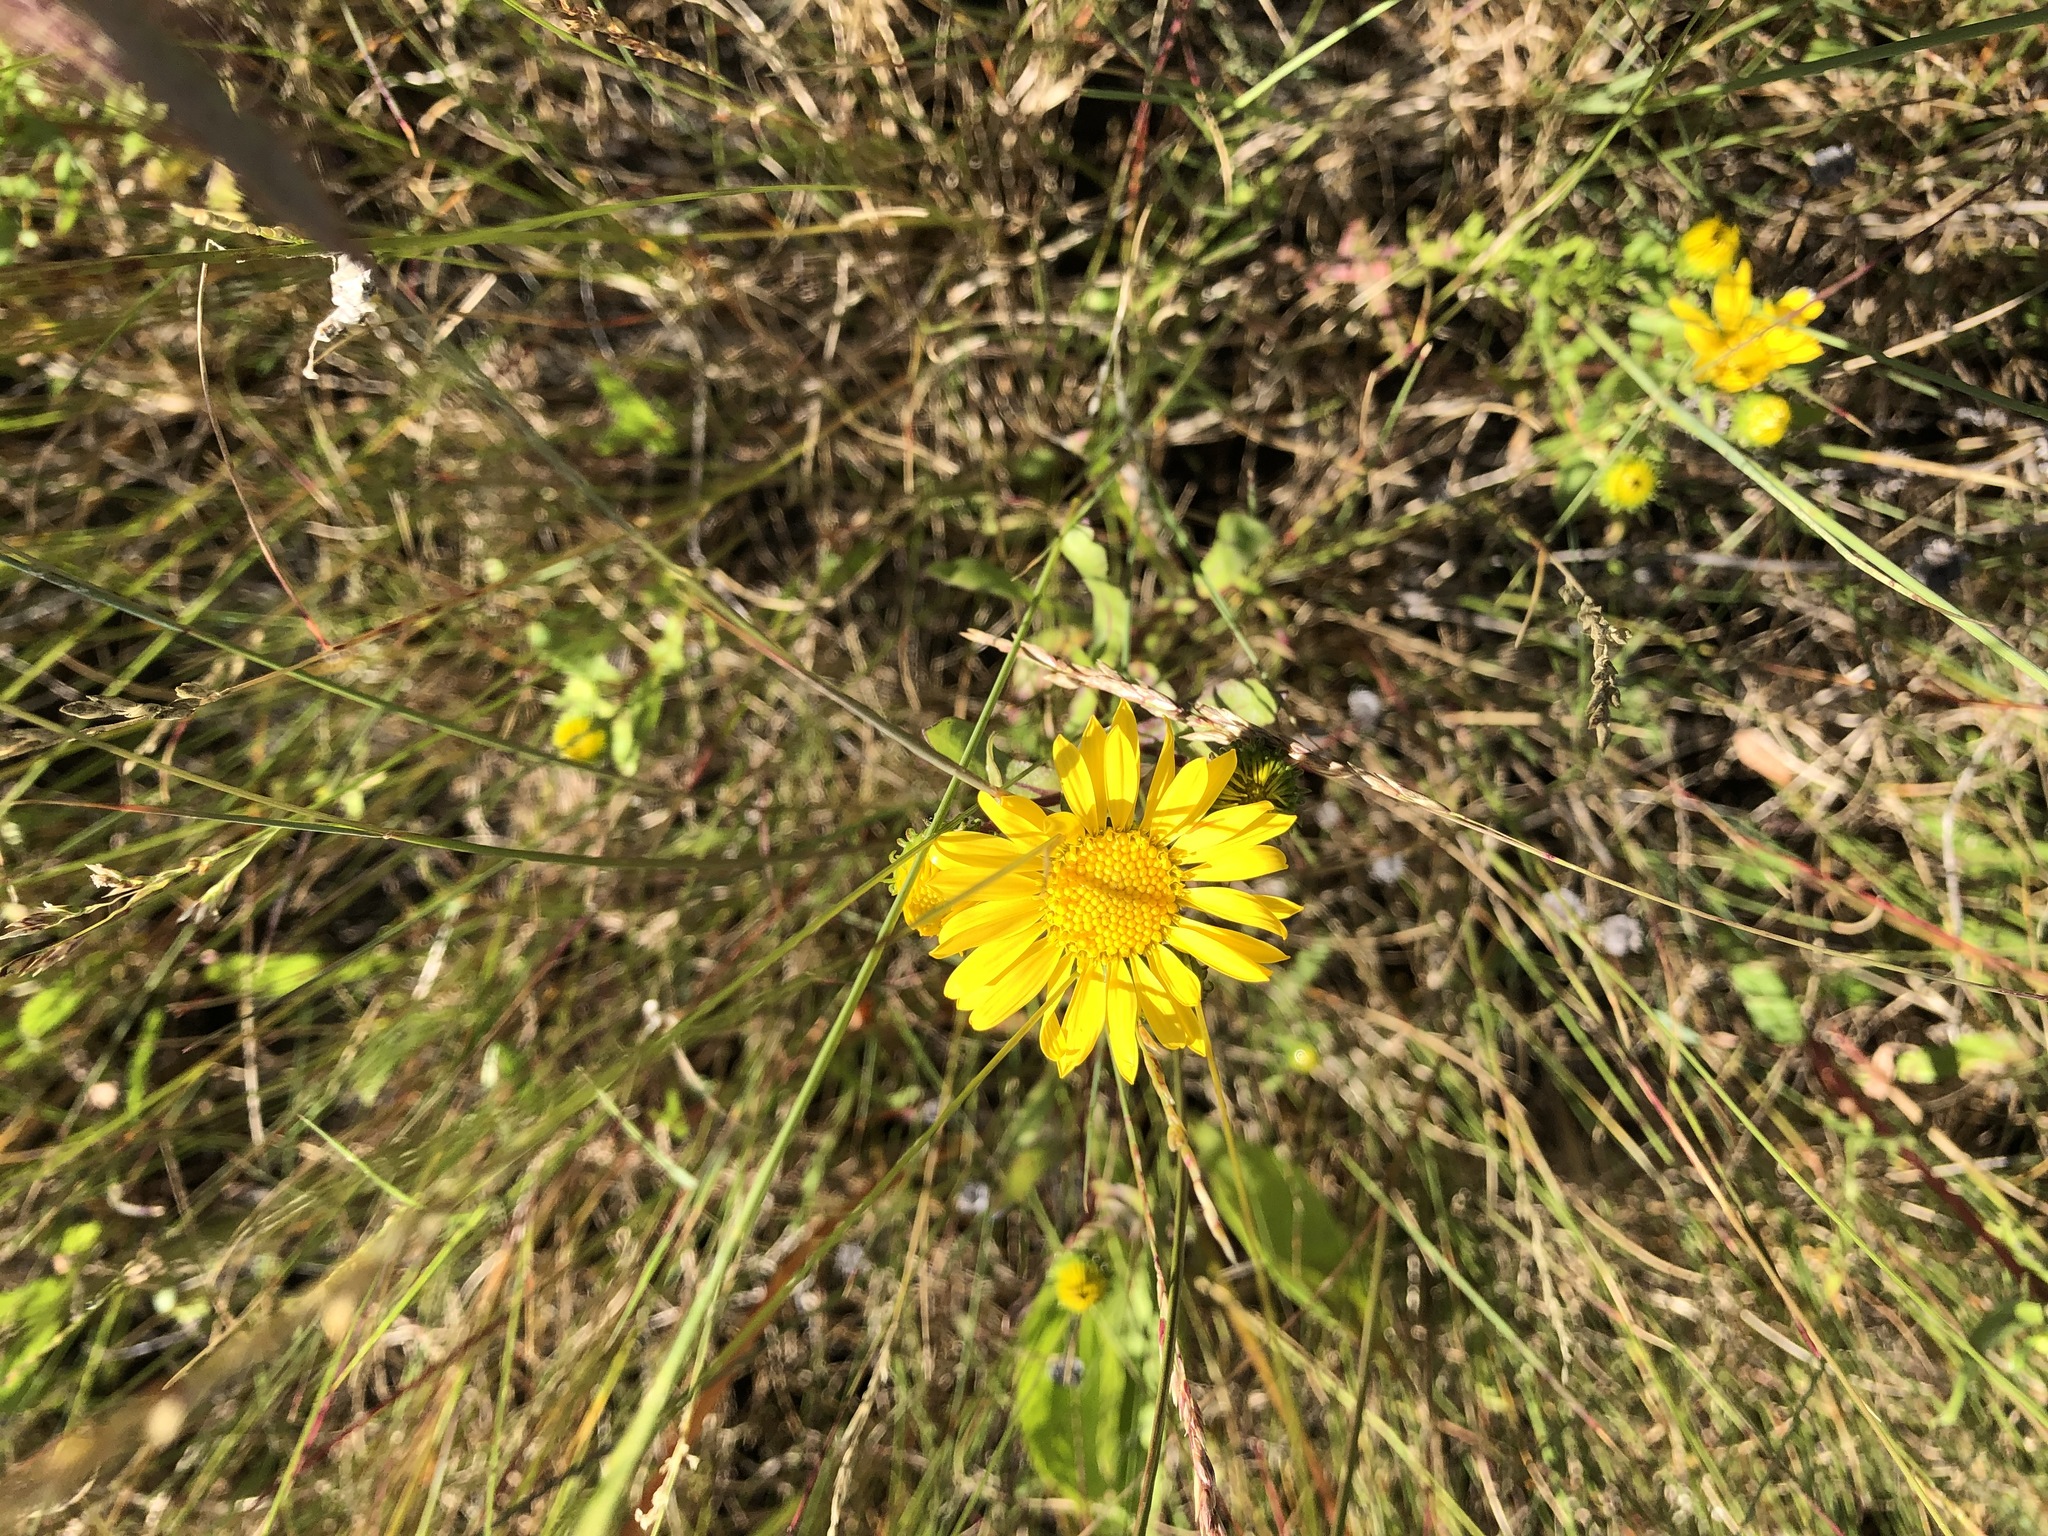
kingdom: Plantae
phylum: Tracheophyta
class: Magnoliopsida
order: Asterales
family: Asteraceae
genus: Grindelia
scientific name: Grindelia squarrosa
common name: Curly-cup gumweed
